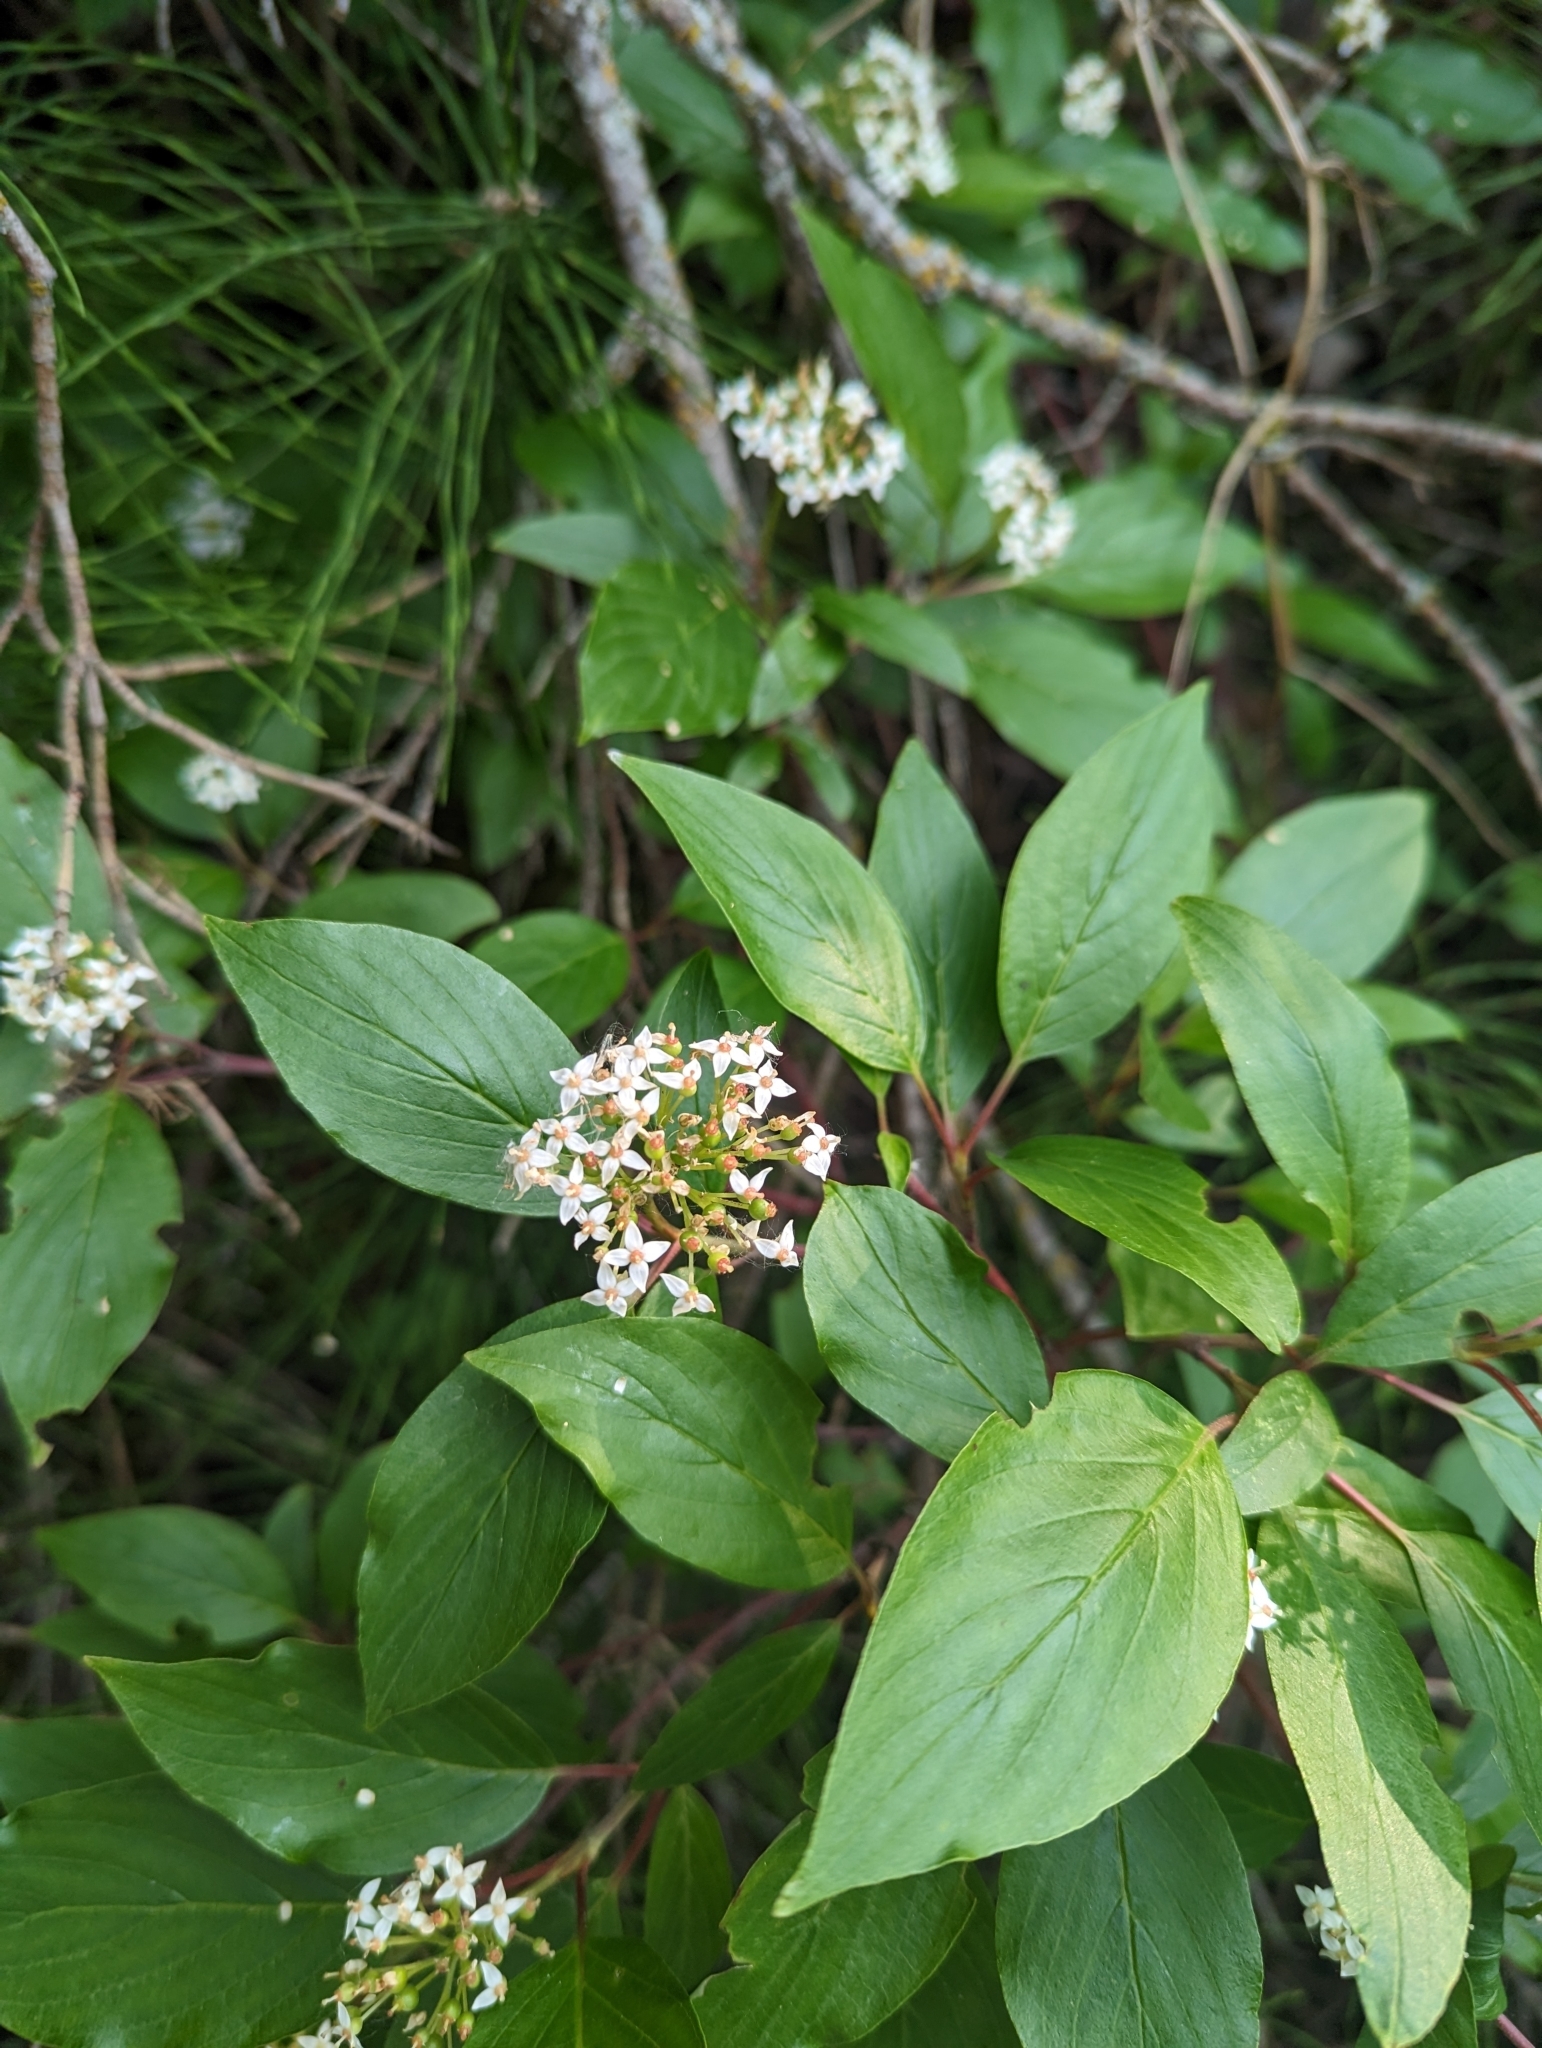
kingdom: Plantae
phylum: Tracheophyta
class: Magnoliopsida
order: Cornales
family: Cornaceae
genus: Cornus
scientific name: Cornus sericea
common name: Red-osier dogwood
